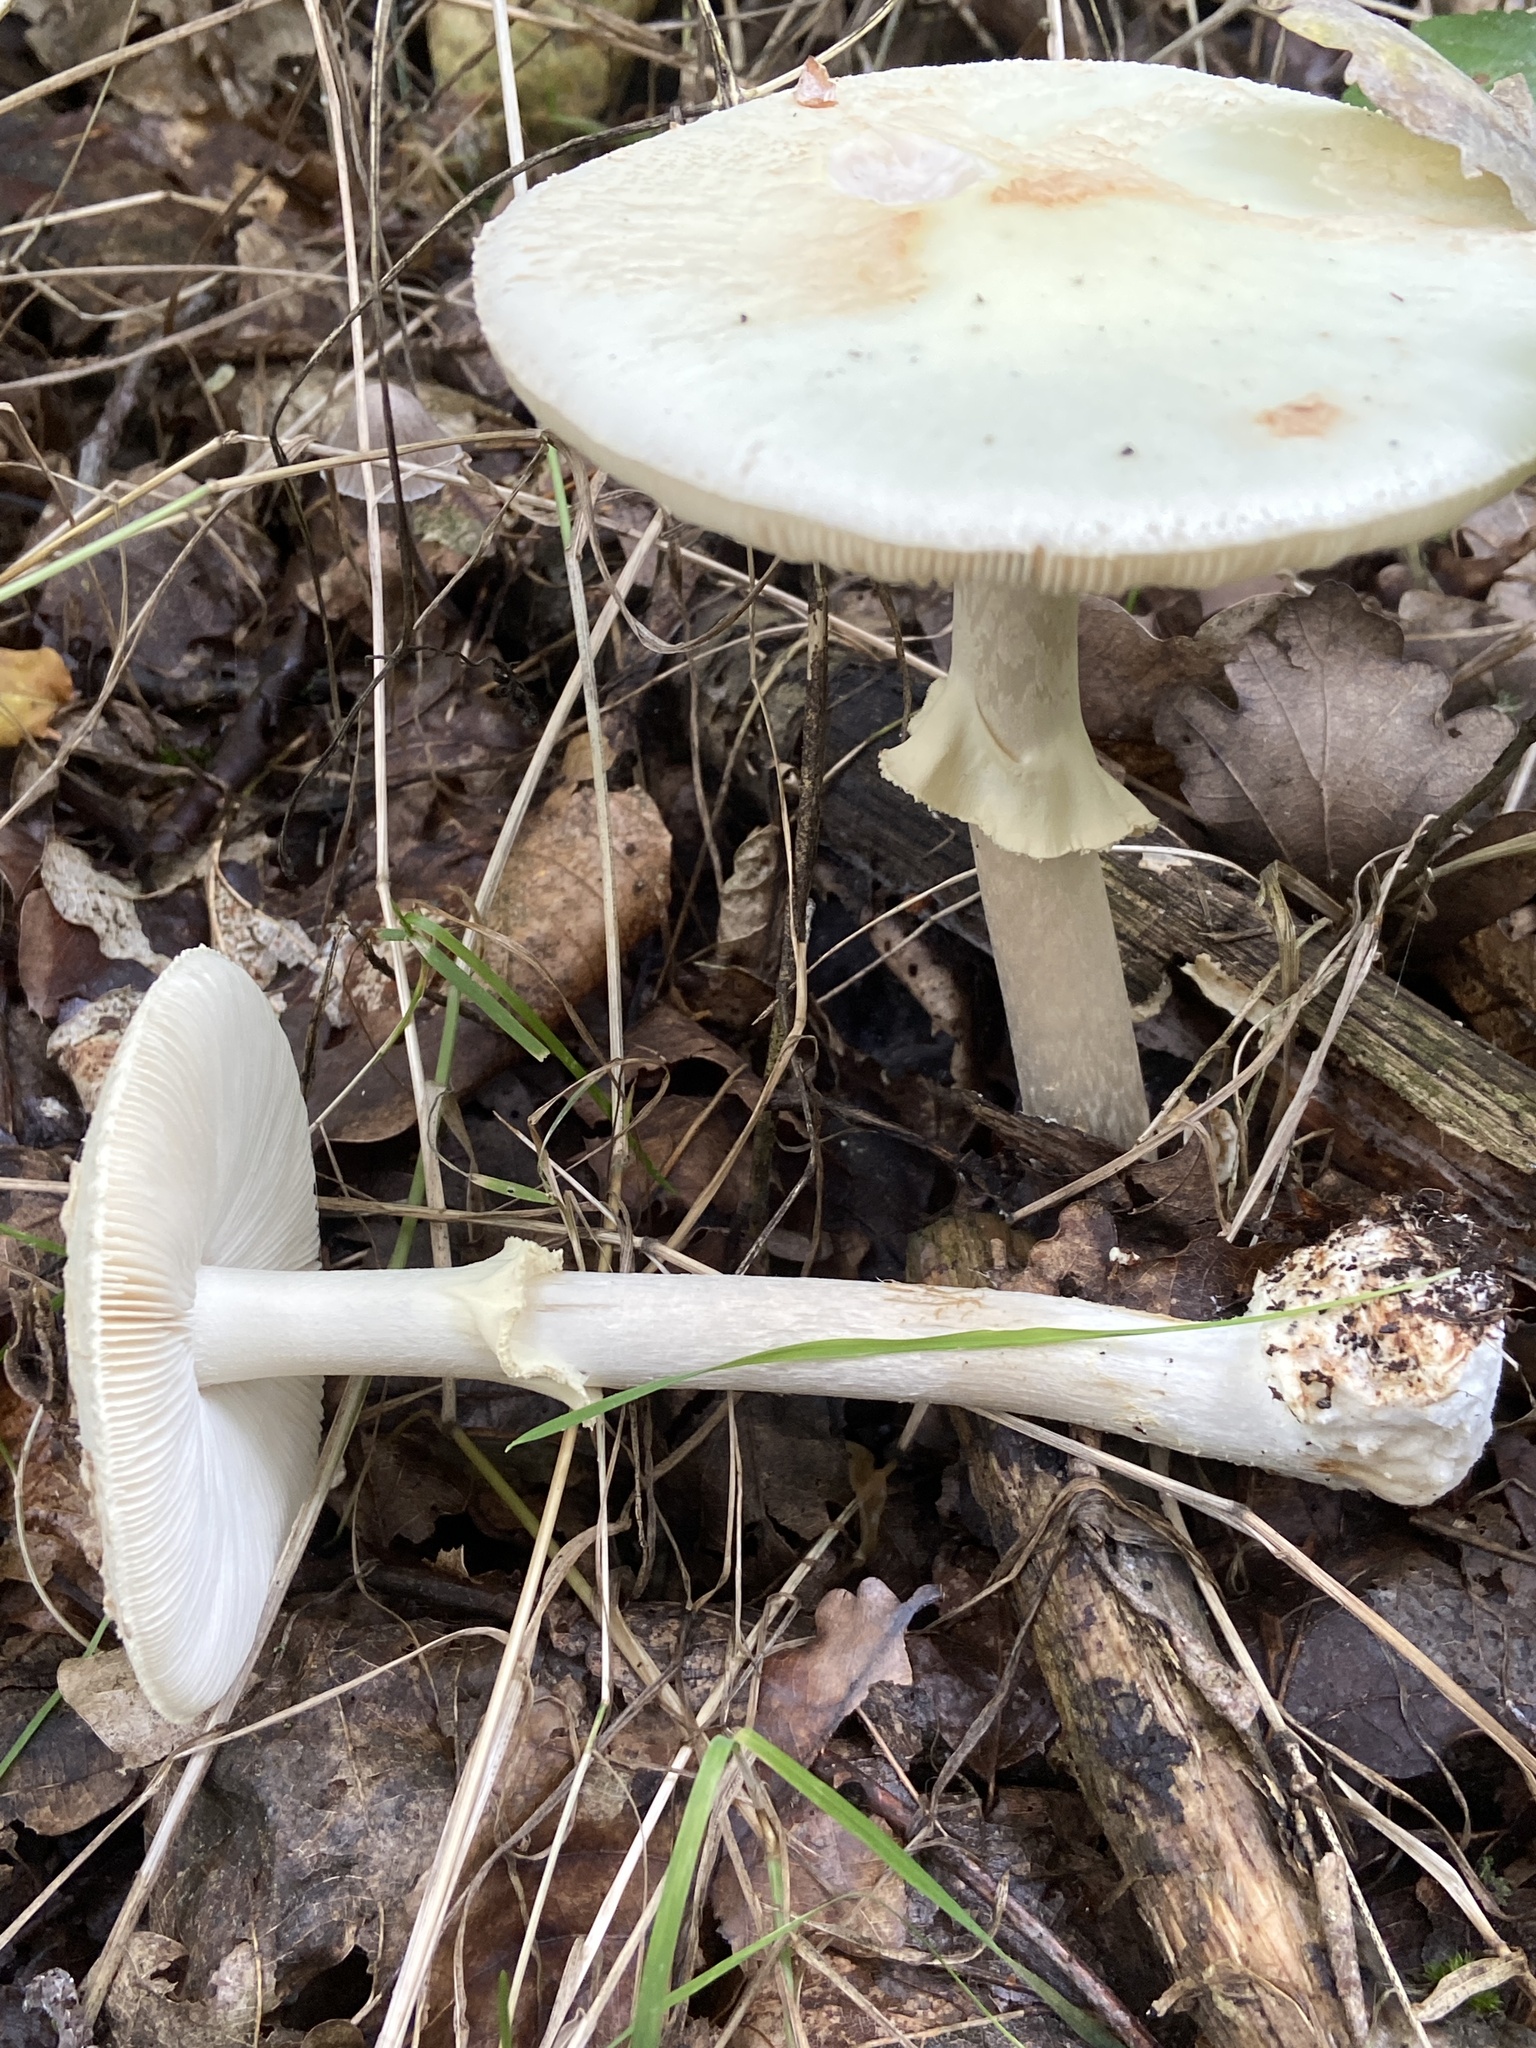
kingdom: Fungi
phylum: Basidiomycota
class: Agaricomycetes
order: Agaricales
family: Amanitaceae
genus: Amanita
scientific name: Amanita citrina
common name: False death-cap
